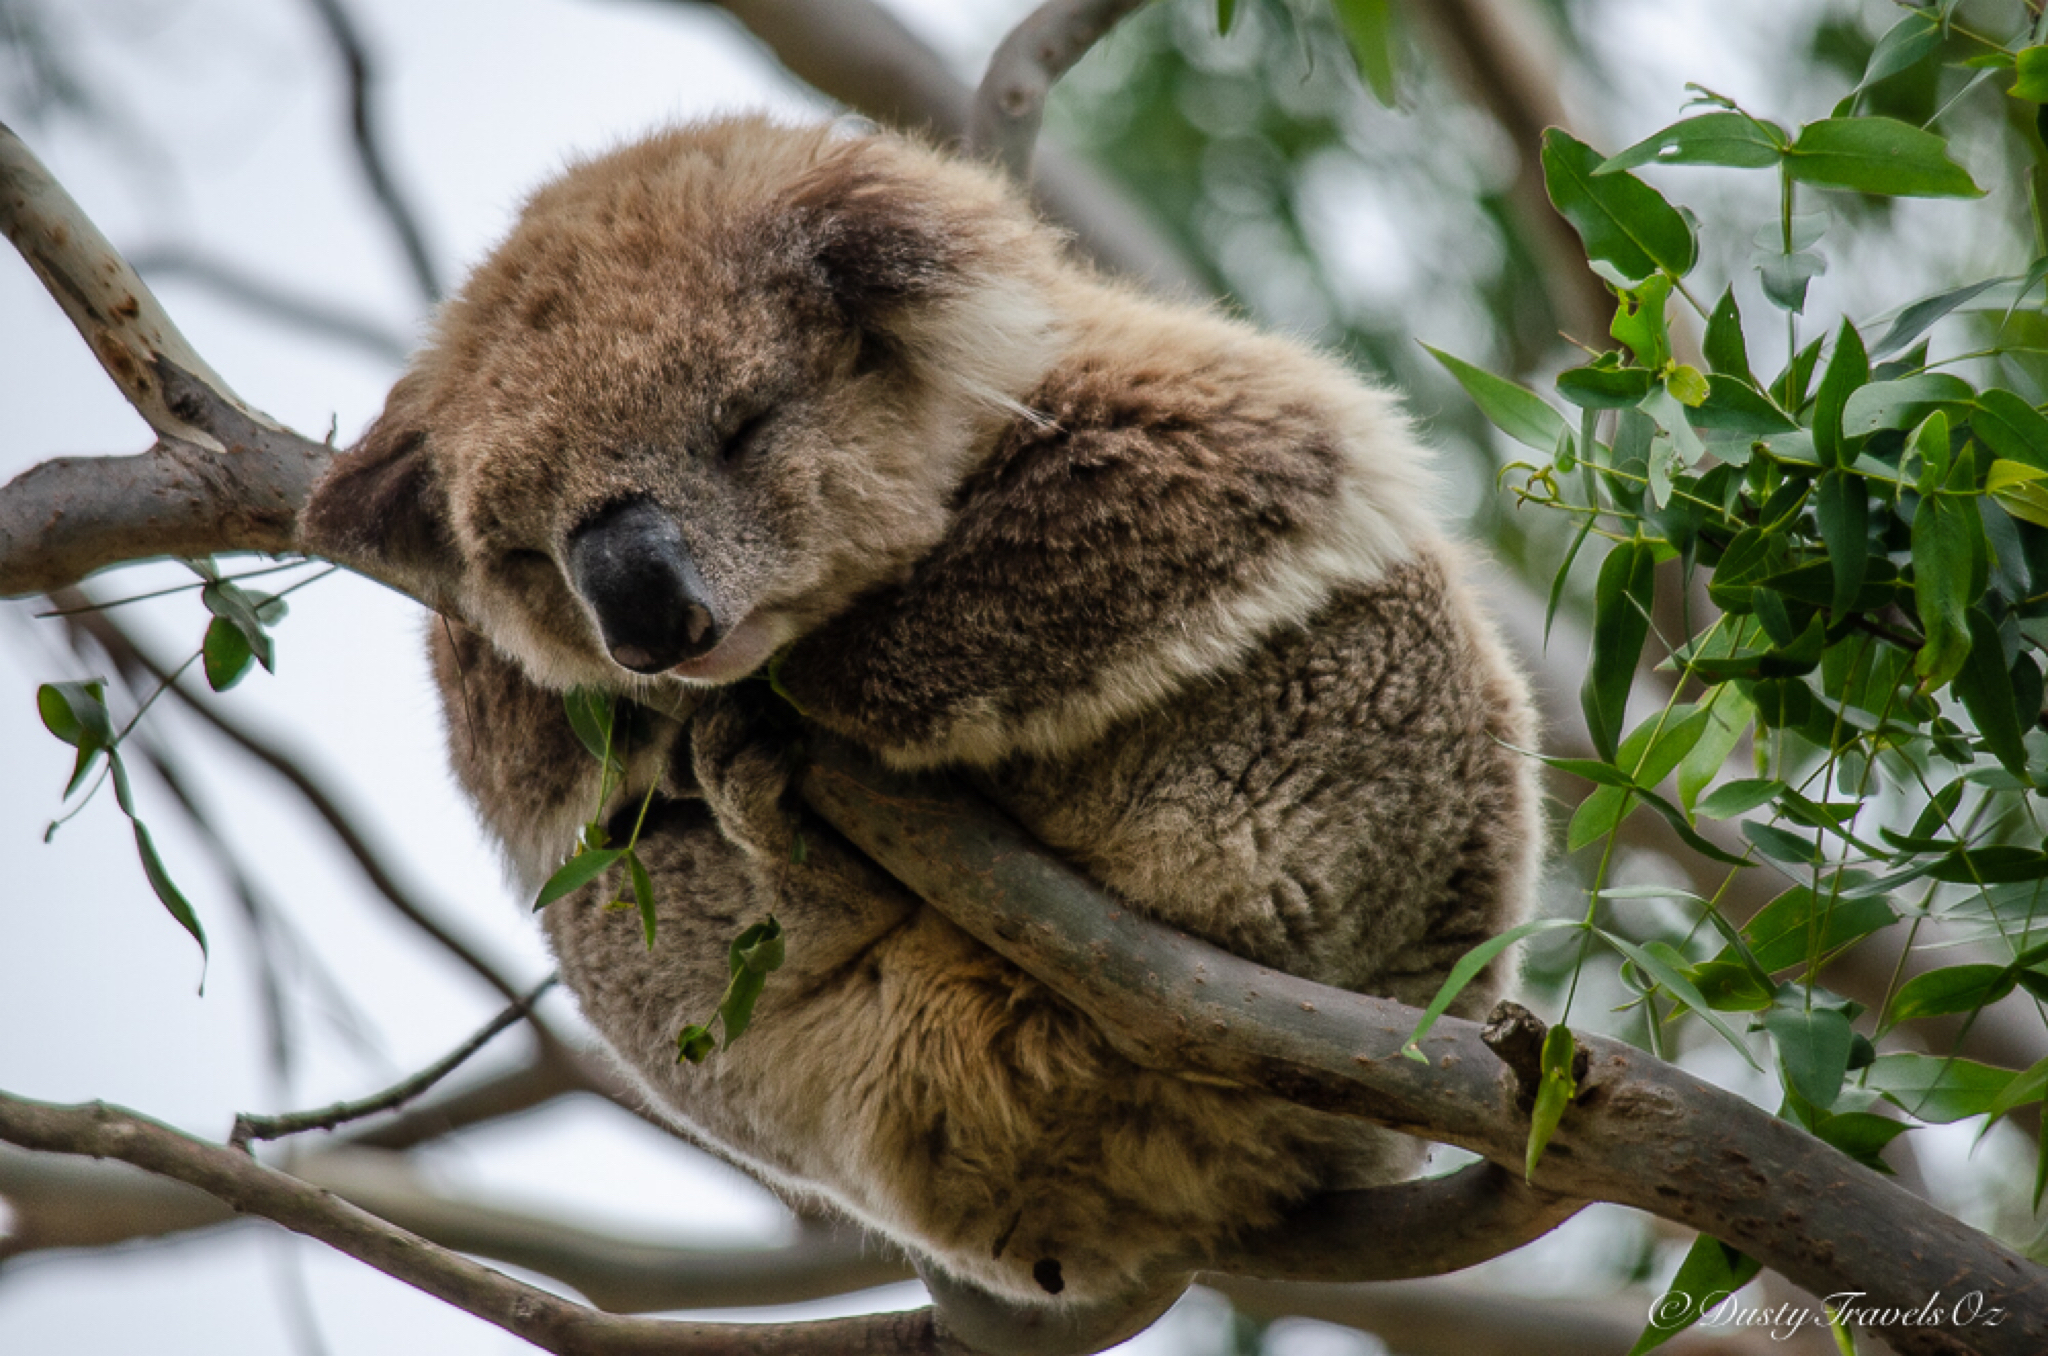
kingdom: Animalia
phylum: Chordata
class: Mammalia
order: Diprotodontia
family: Phascolarctidae
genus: Phascolarctos
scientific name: Phascolarctos cinereus
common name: Koala
